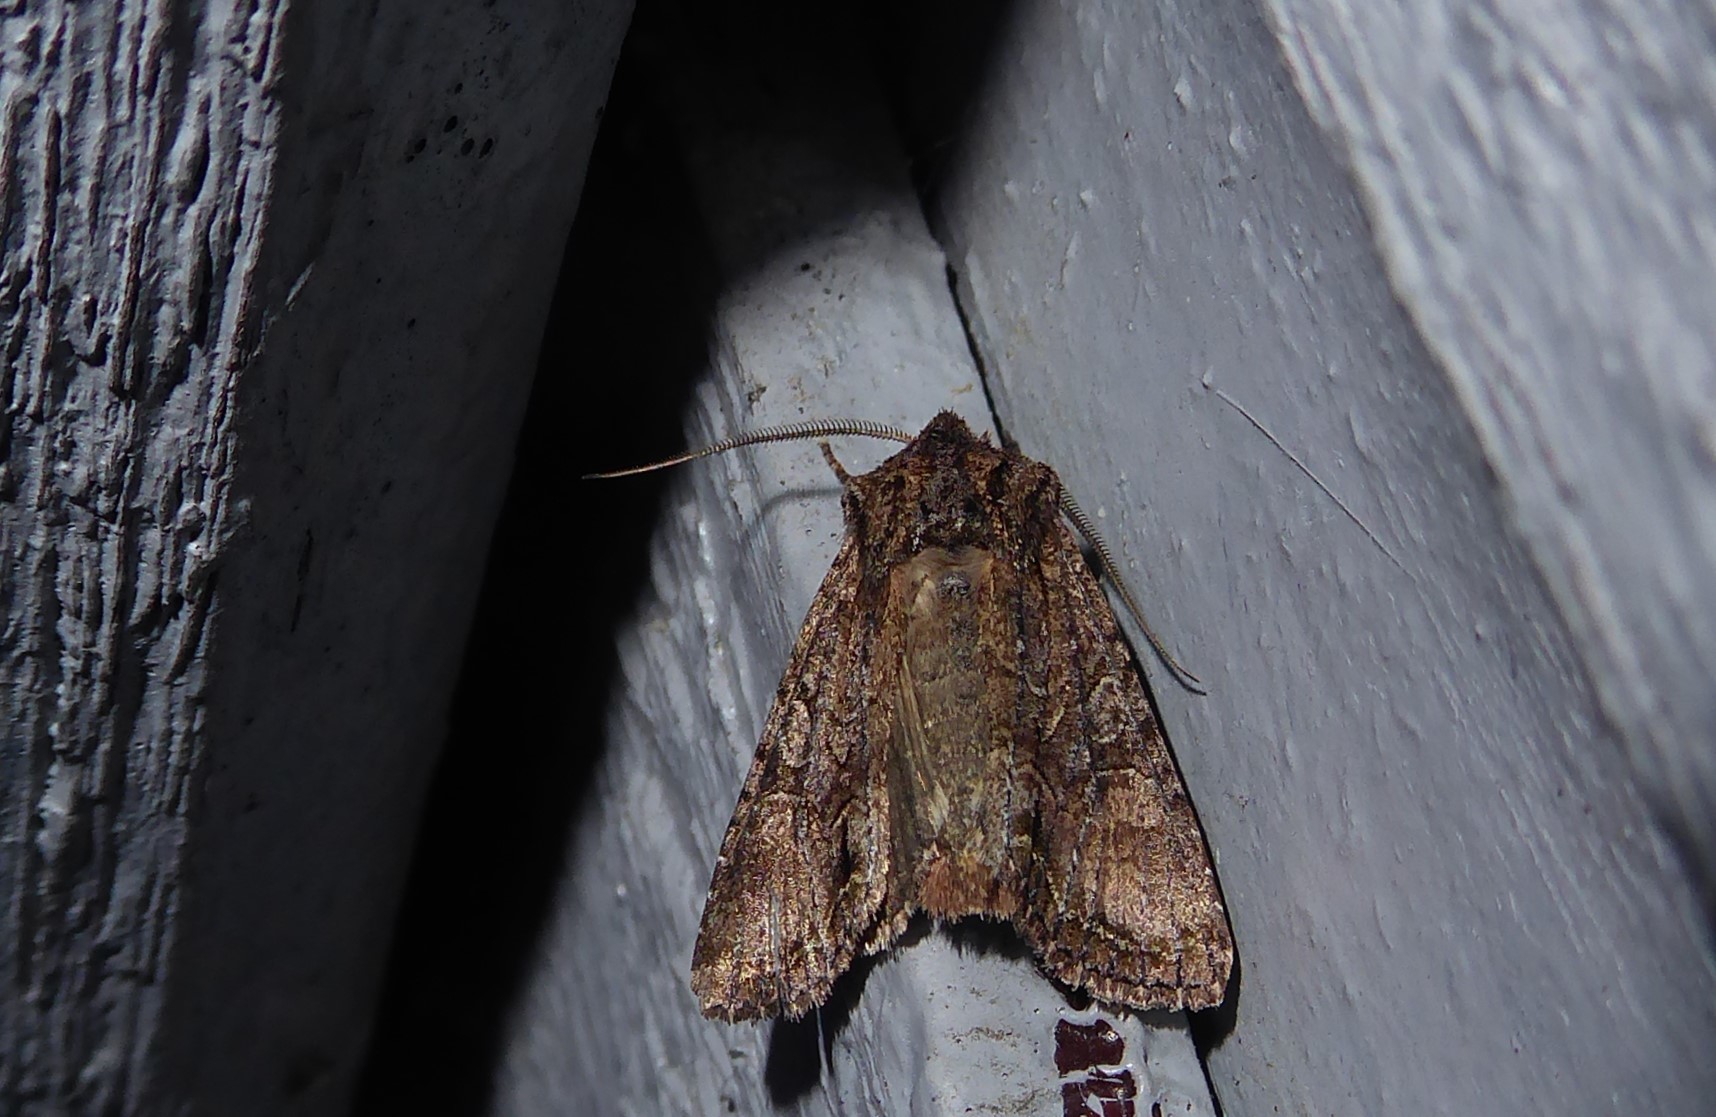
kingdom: Animalia
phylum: Arthropoda
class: Insecta
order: Lepidoptera
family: Noctuidae
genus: Ichneutica
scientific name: Ichneutica mutans
